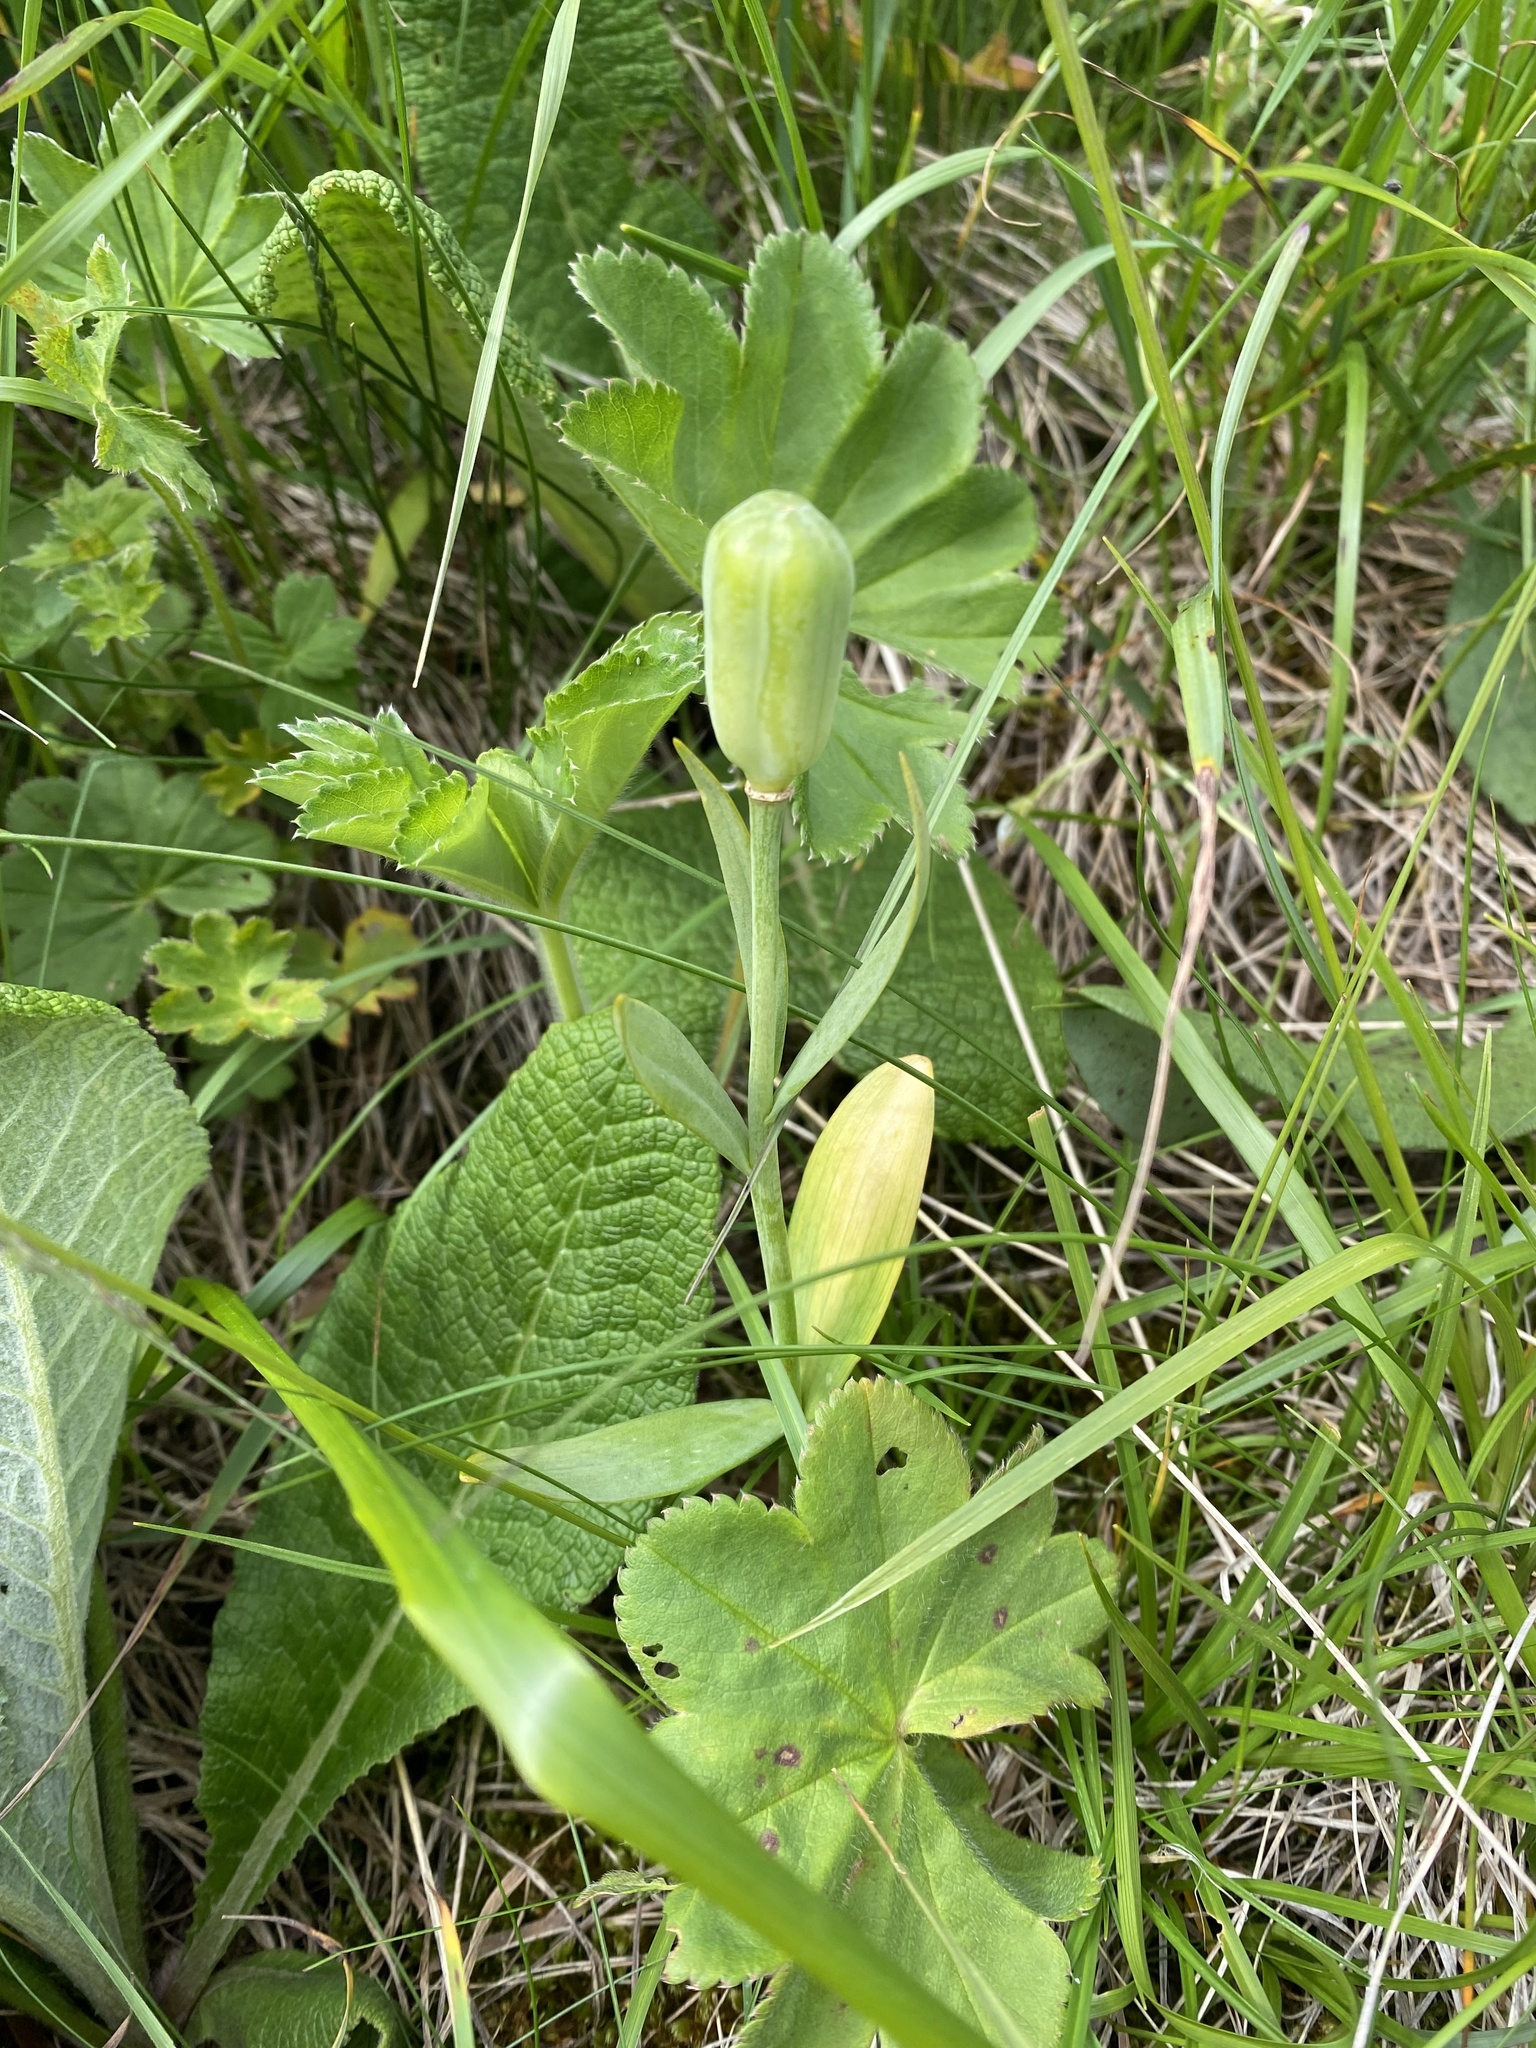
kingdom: Plantae
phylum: Tracheophyta
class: Liliopsida
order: Liliales
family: Liliaceae
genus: Fritillaria
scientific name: Fritillaria collina
